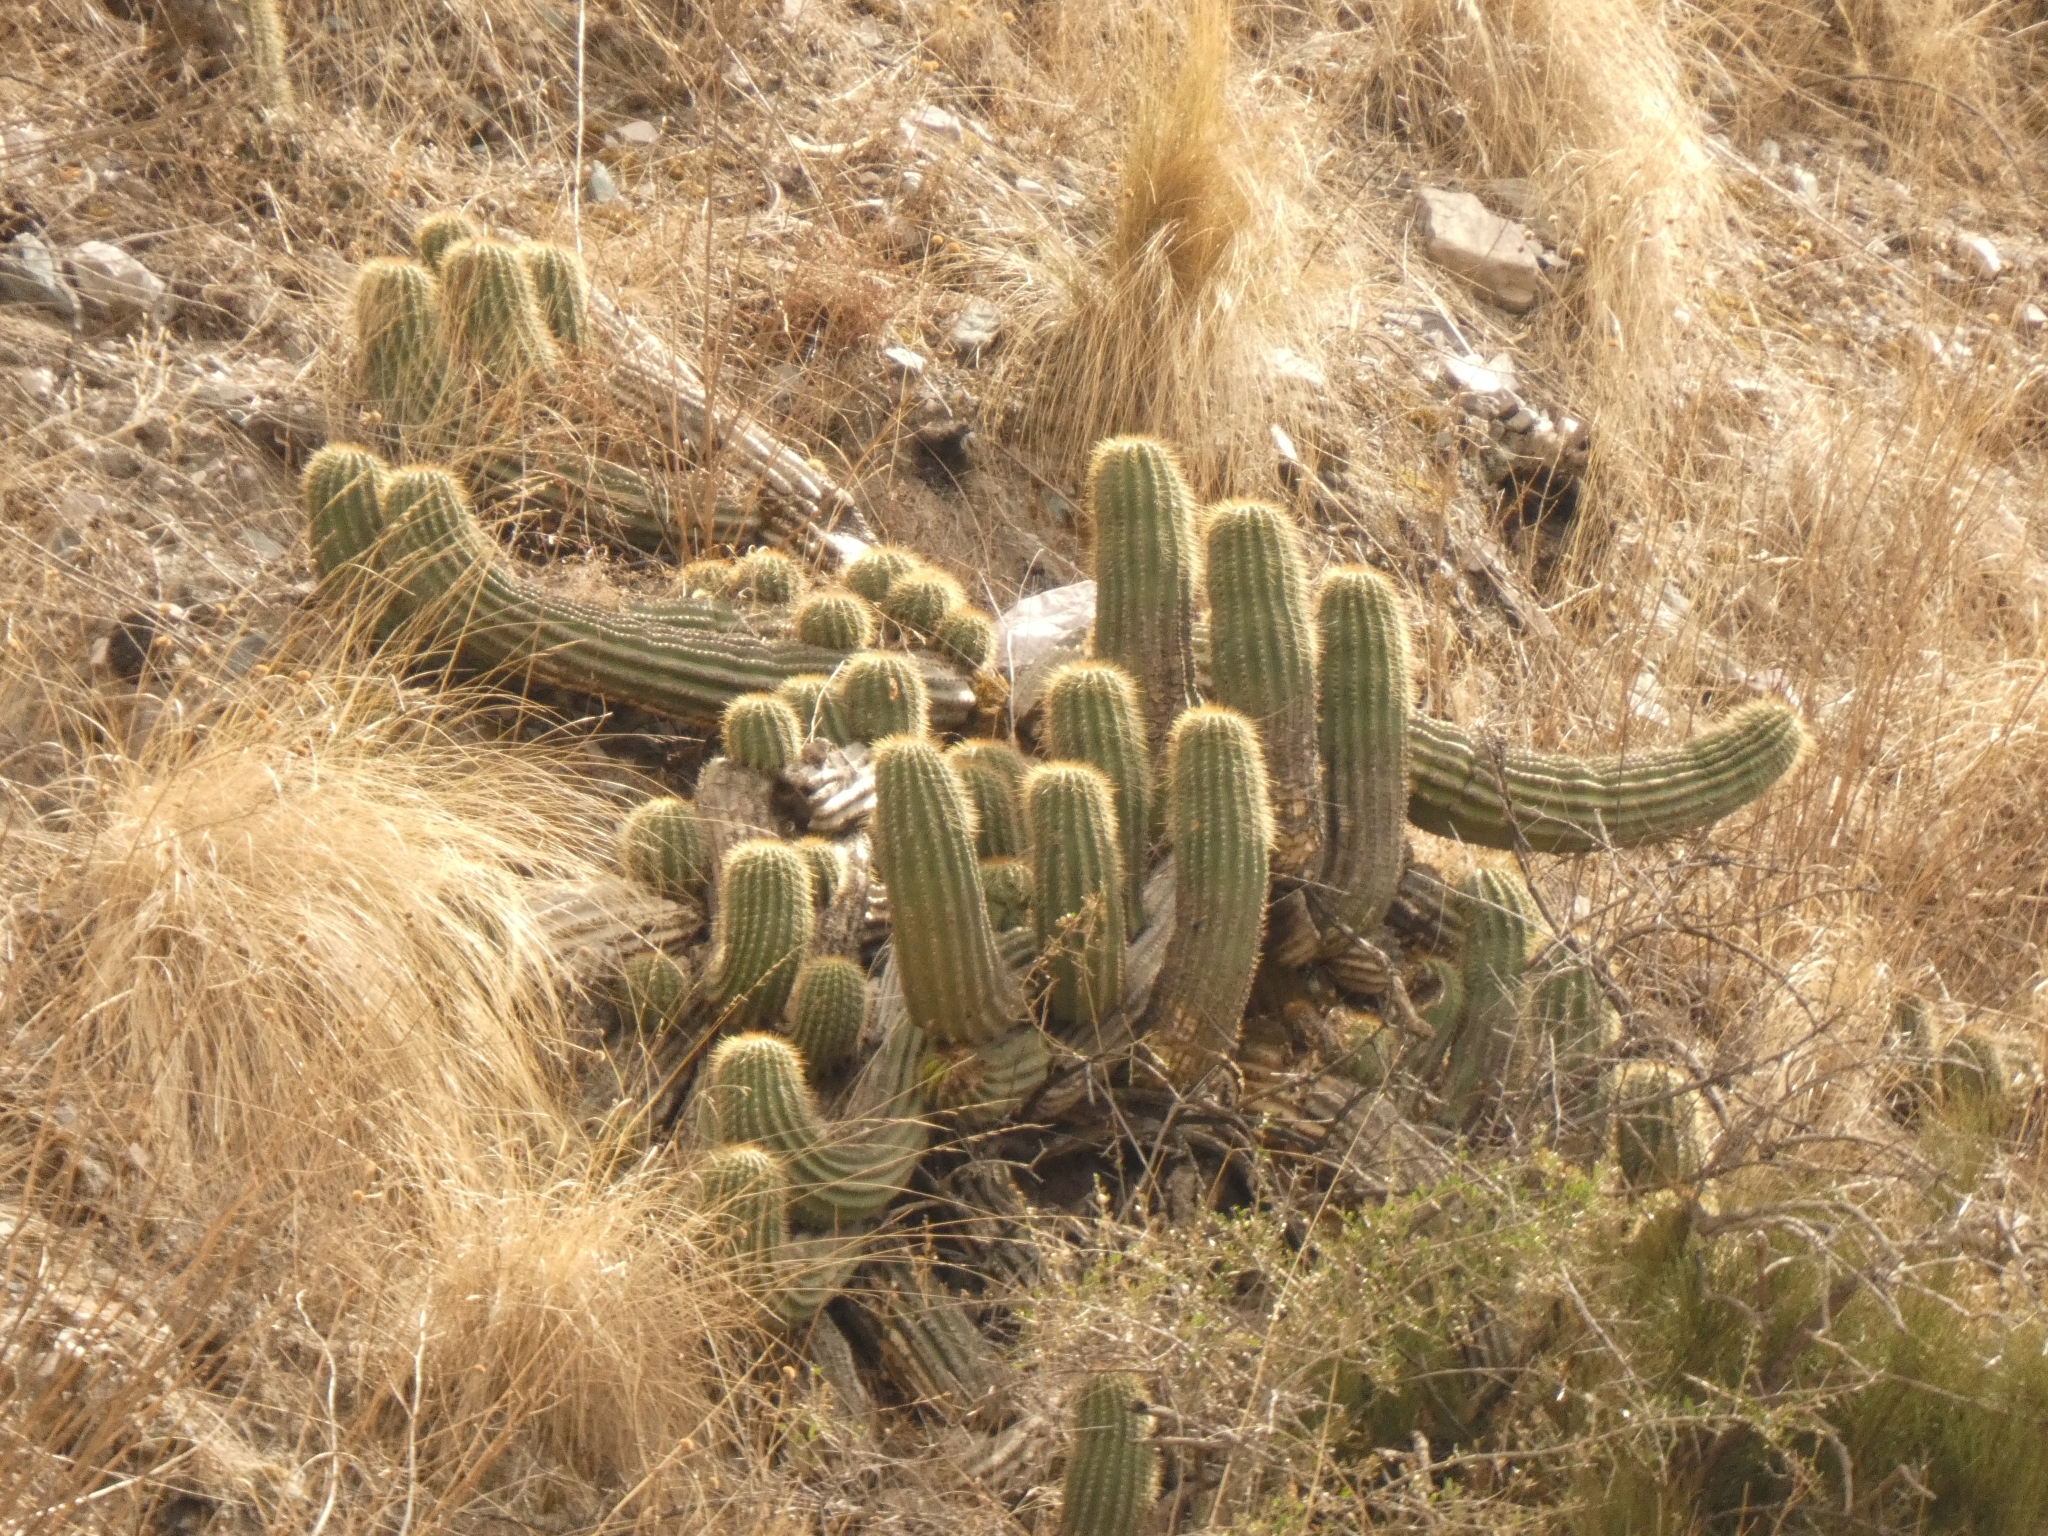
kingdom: Plantae
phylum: Tracheophyta
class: Magnoliopsida
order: Caryophyllales
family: Cactaceae
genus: Soehrensia
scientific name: Soehrensia schickendantzii
